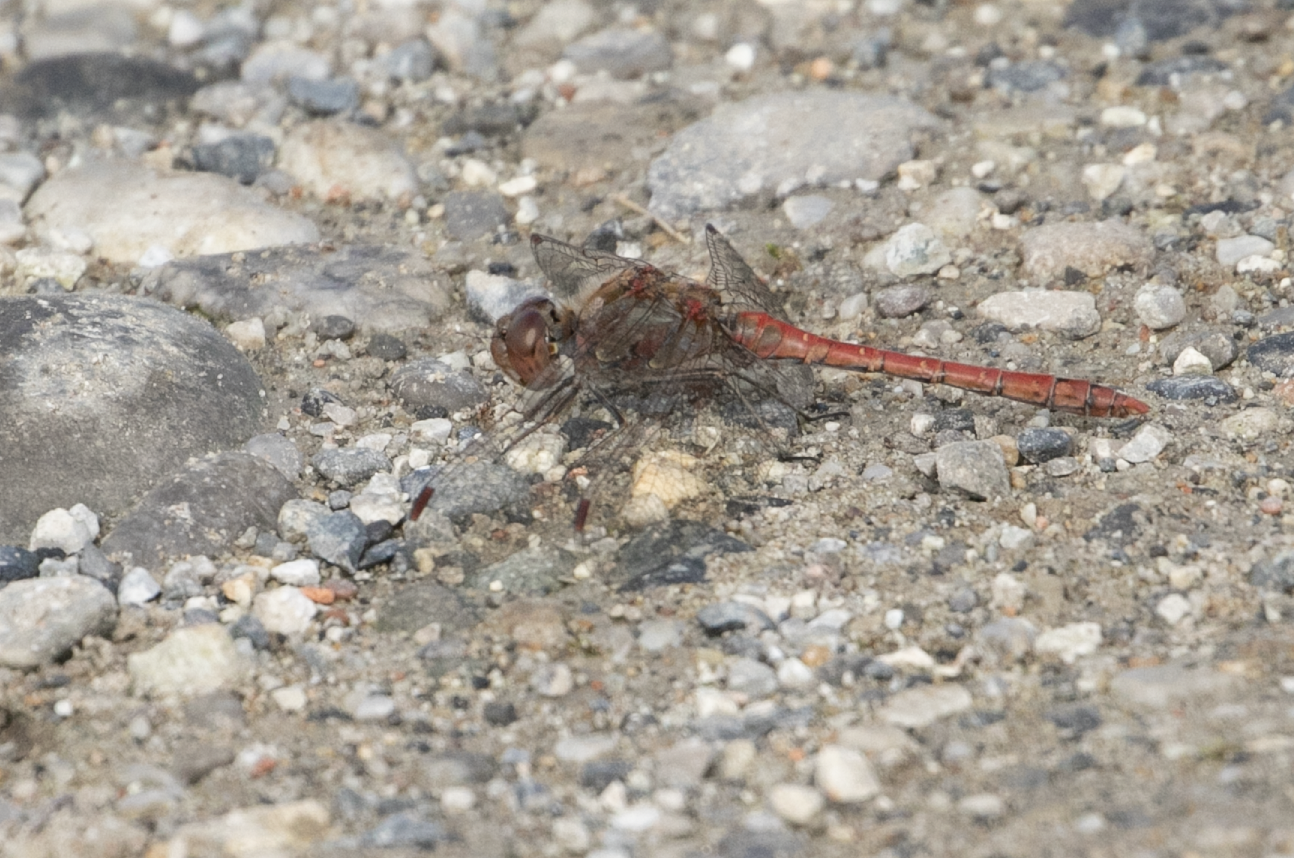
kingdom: Animalia
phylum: Arthropoda
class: Insecta
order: Odonata
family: Libellulidae
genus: Sympetrum
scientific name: Sympetrum striolatum
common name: Common darter
